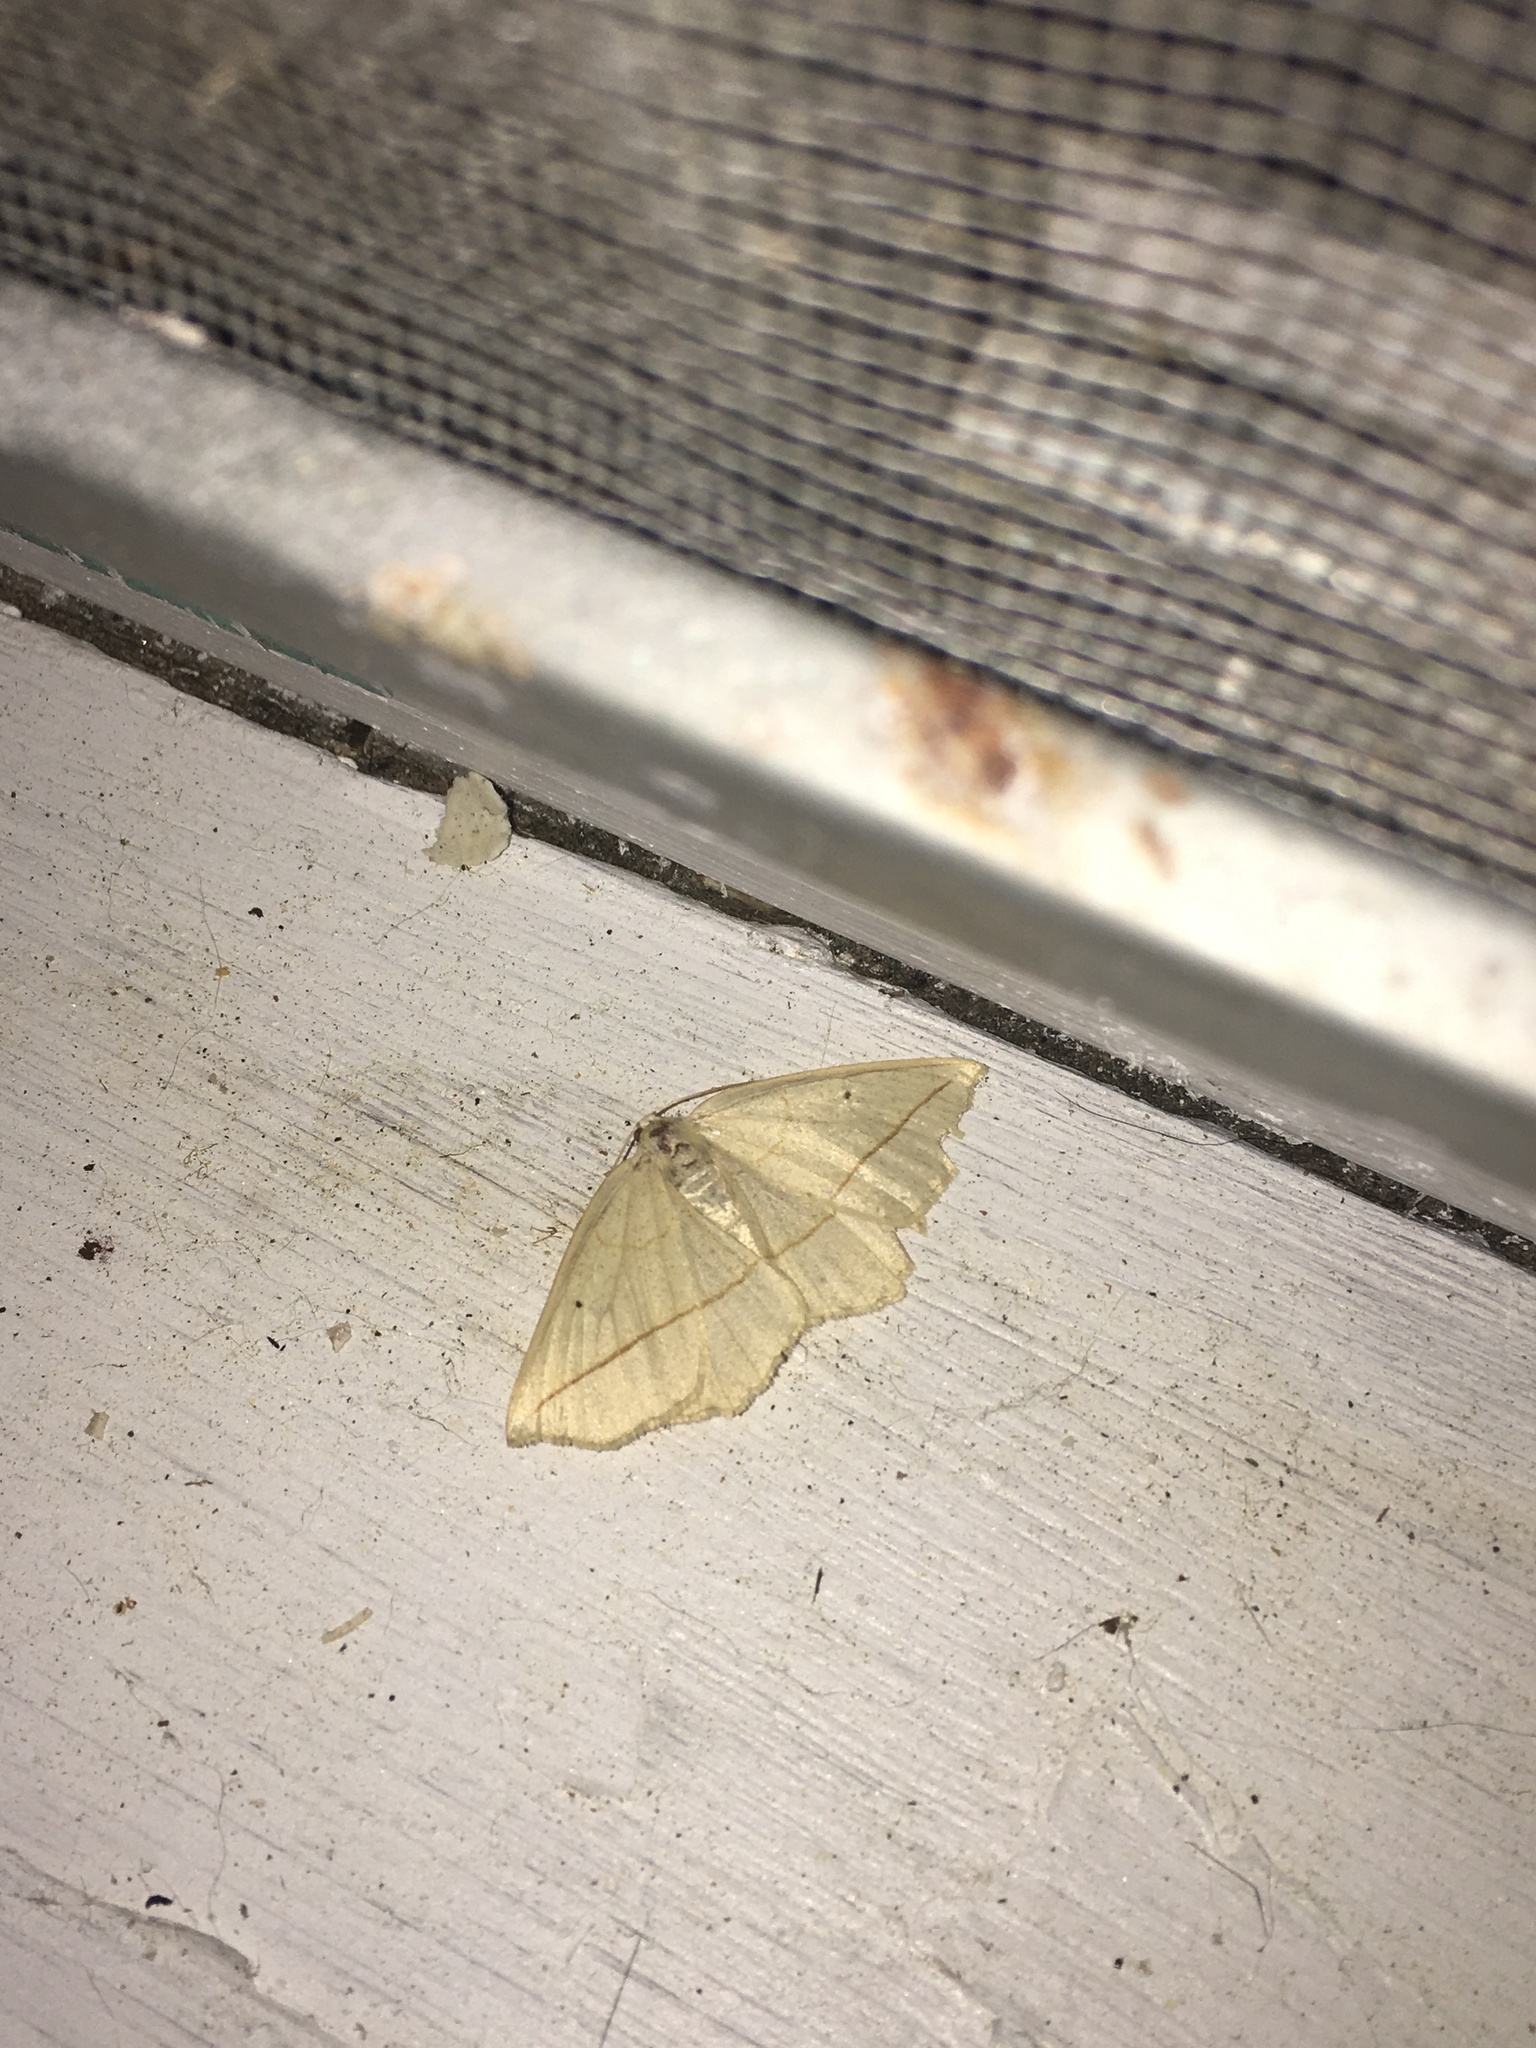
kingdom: Animalia
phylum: Arthropoda
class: Insecta
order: Lepidoptera
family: Geometridae
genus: Eusarca
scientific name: Eusarca confusaria
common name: Confused eusarca
